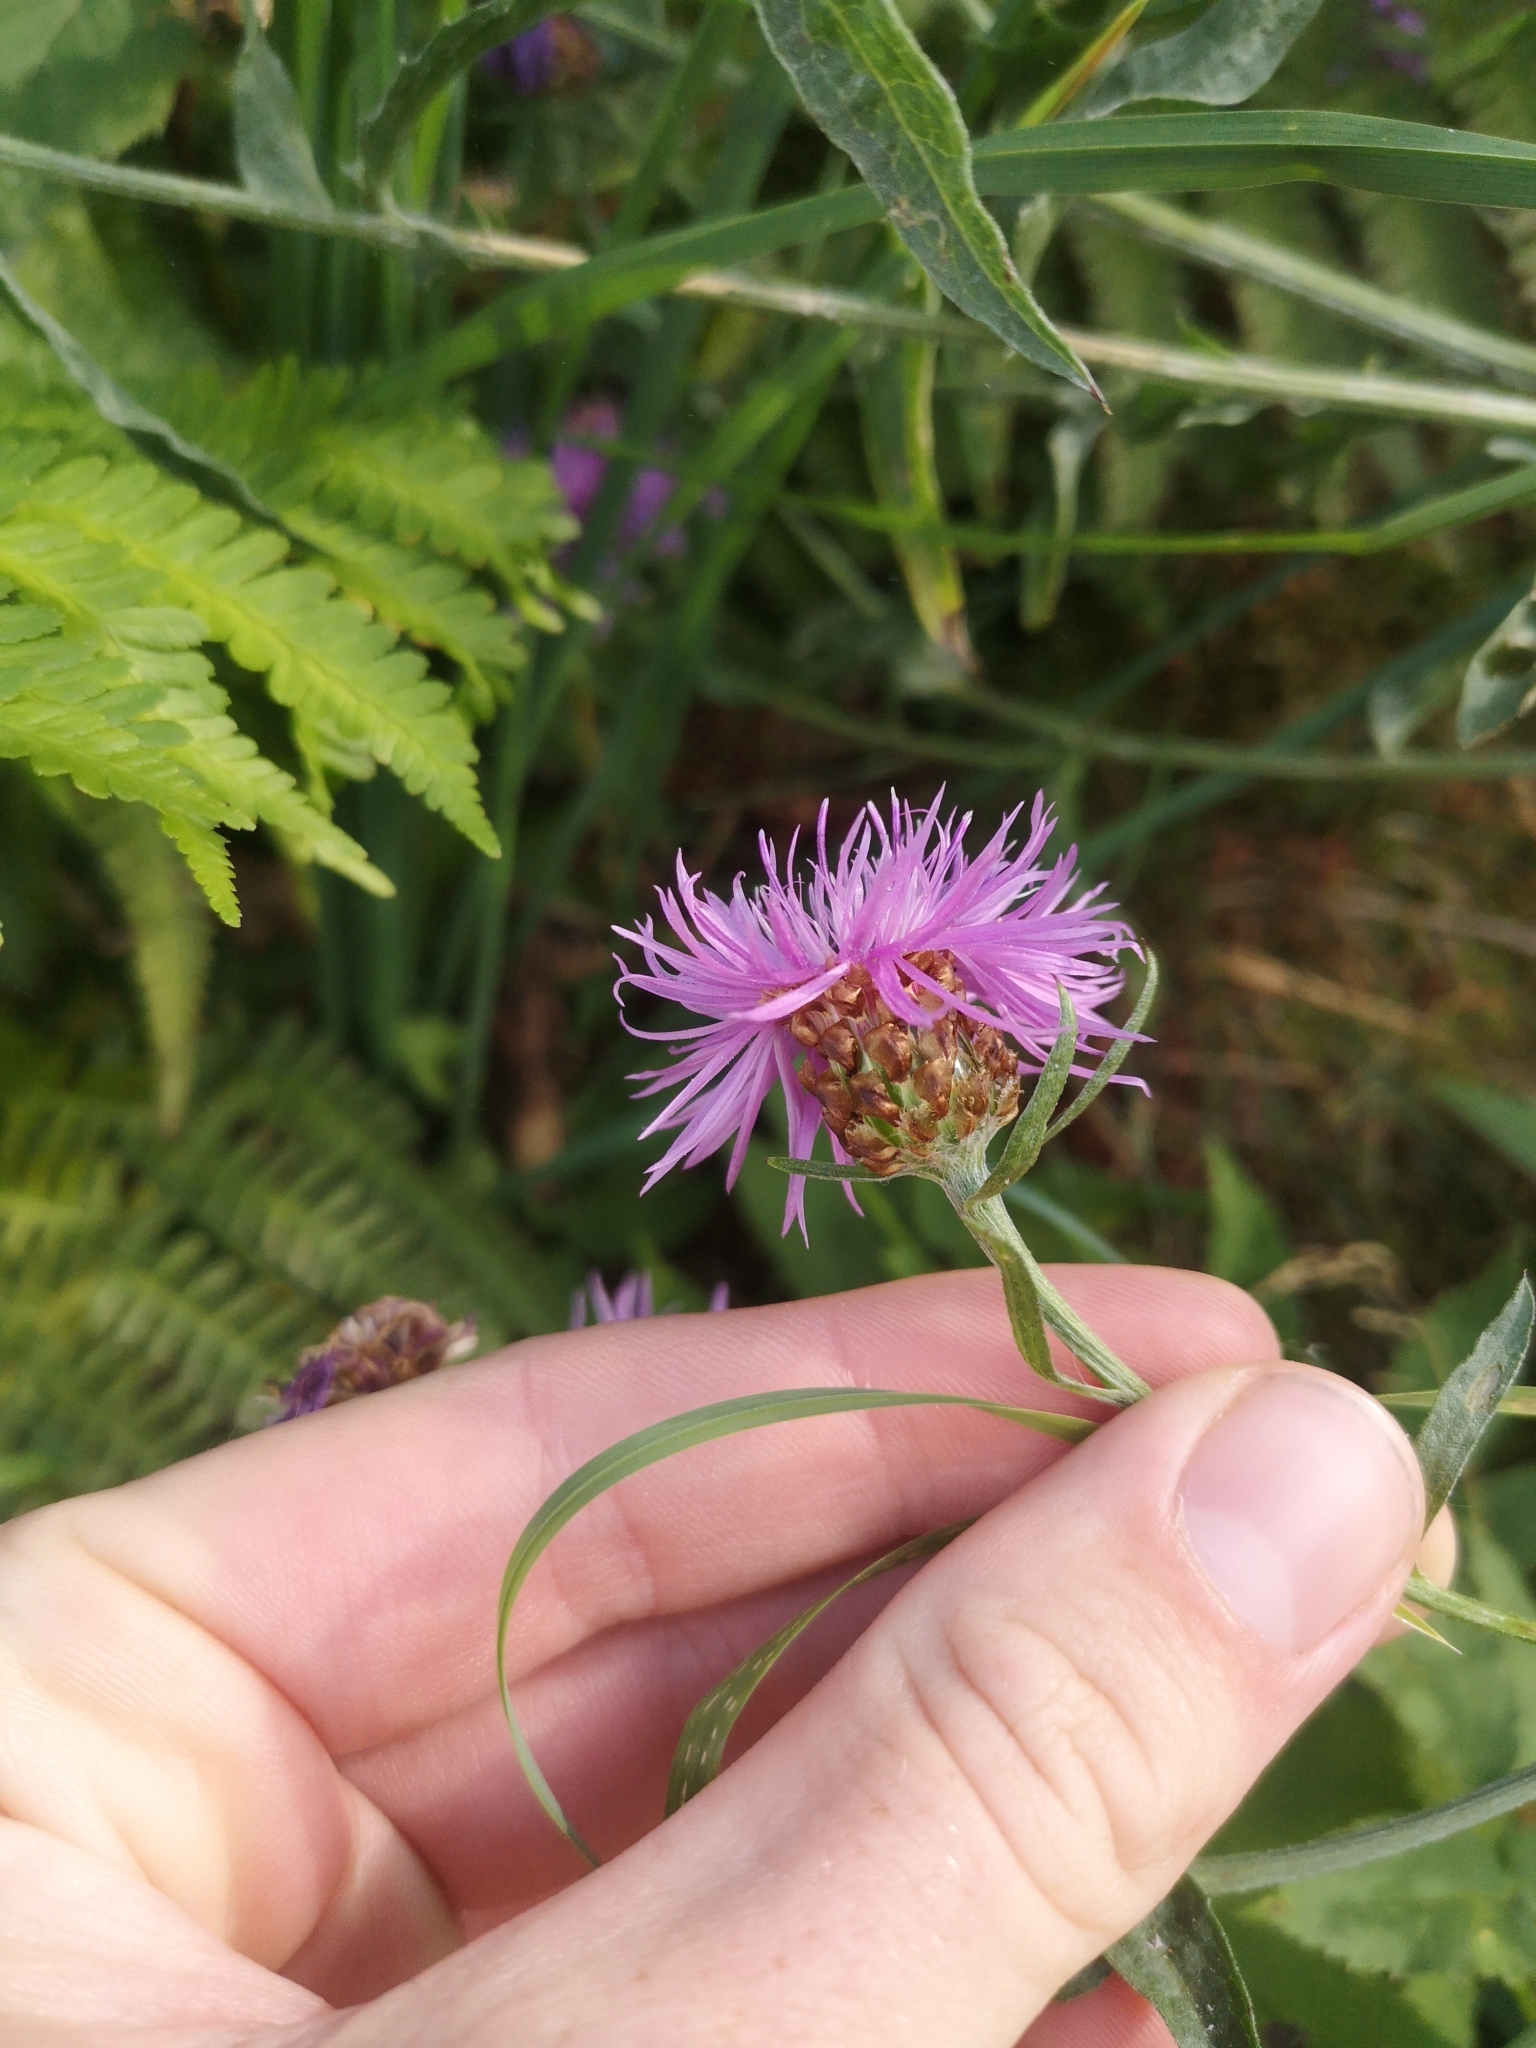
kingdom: Plantae
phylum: Tracheophyta
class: Magnoliopsida
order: Asterales
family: Asteraceae
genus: Centaurea
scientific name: Centaurea jacea
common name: Brown knapweed
